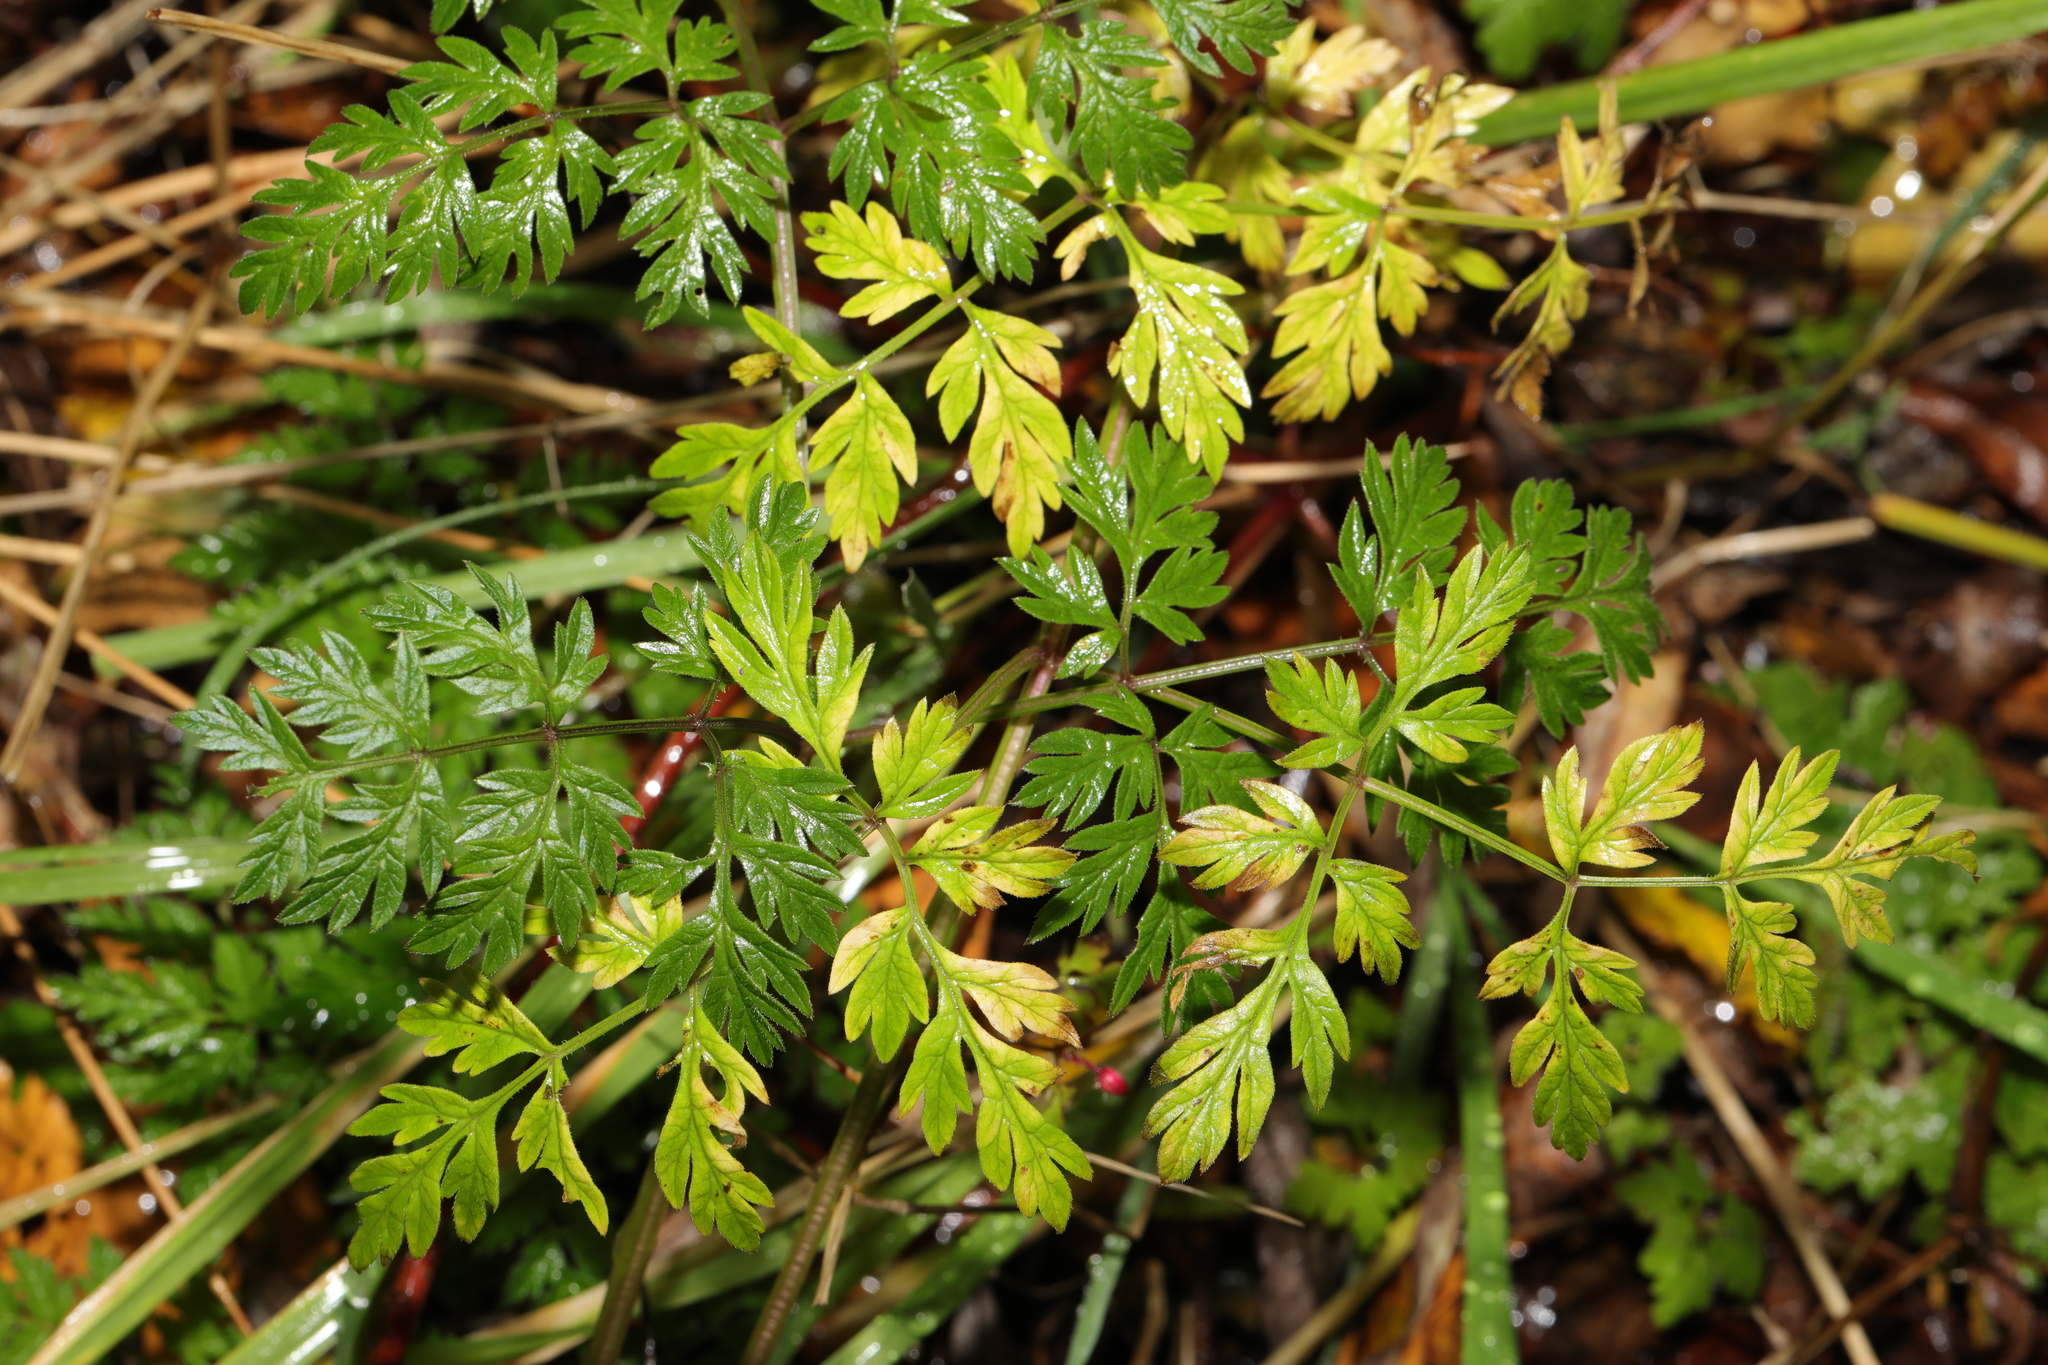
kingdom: Plantae
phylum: Tracheophyta
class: Magnoliopsida
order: Apiales
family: Apiaceae
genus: Anthriscus
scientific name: Anthriscus sylvestris
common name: Cow parsley
